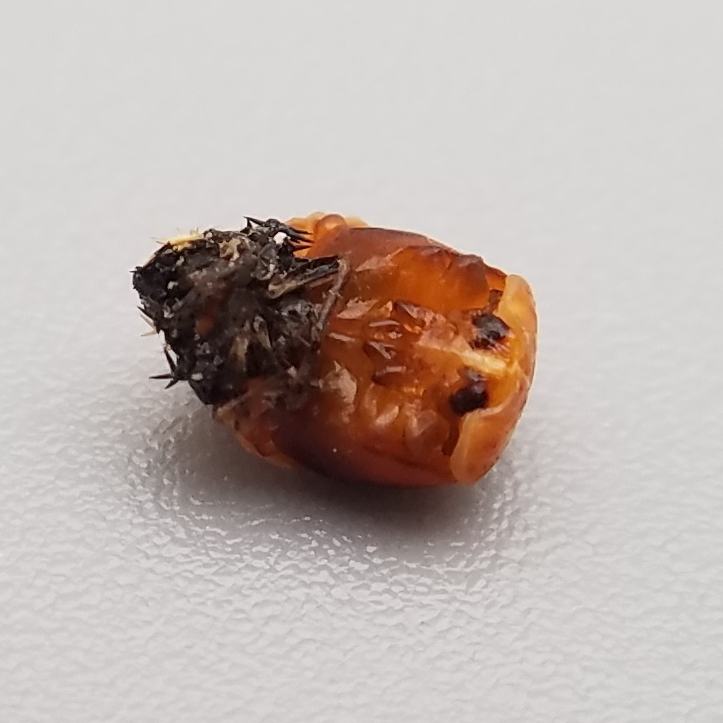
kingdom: Animalia
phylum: Arthropoda
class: Insecta
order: Coleoptera
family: Coccinellidae
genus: Harmonia
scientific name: Harmonia axyridis
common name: Harlequin ladybird
